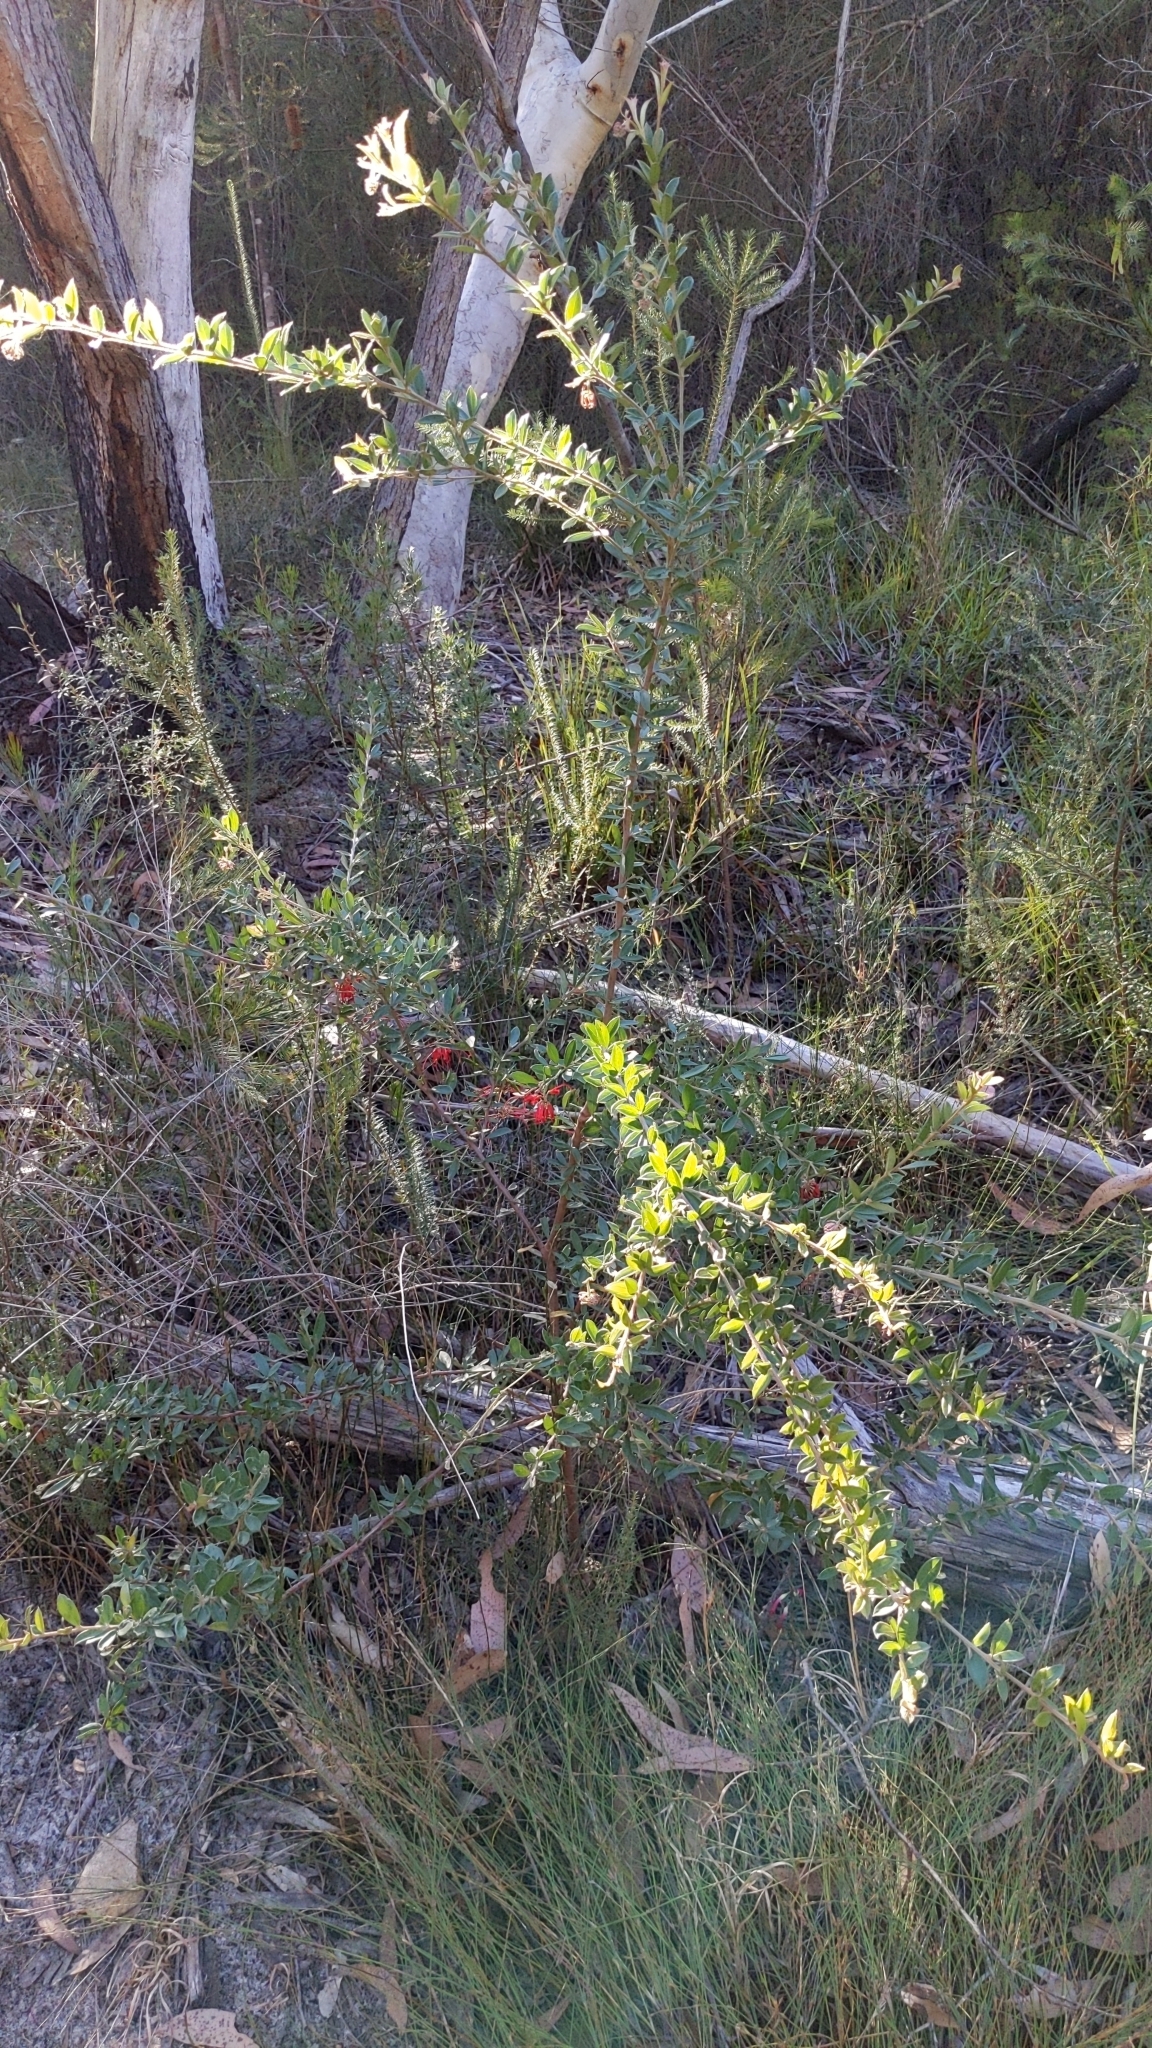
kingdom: Plantae
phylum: Tracheophyta
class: Magnoliopsida
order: Proteales
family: Proteaceae
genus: Grevillea
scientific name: Grevillea speciosa
